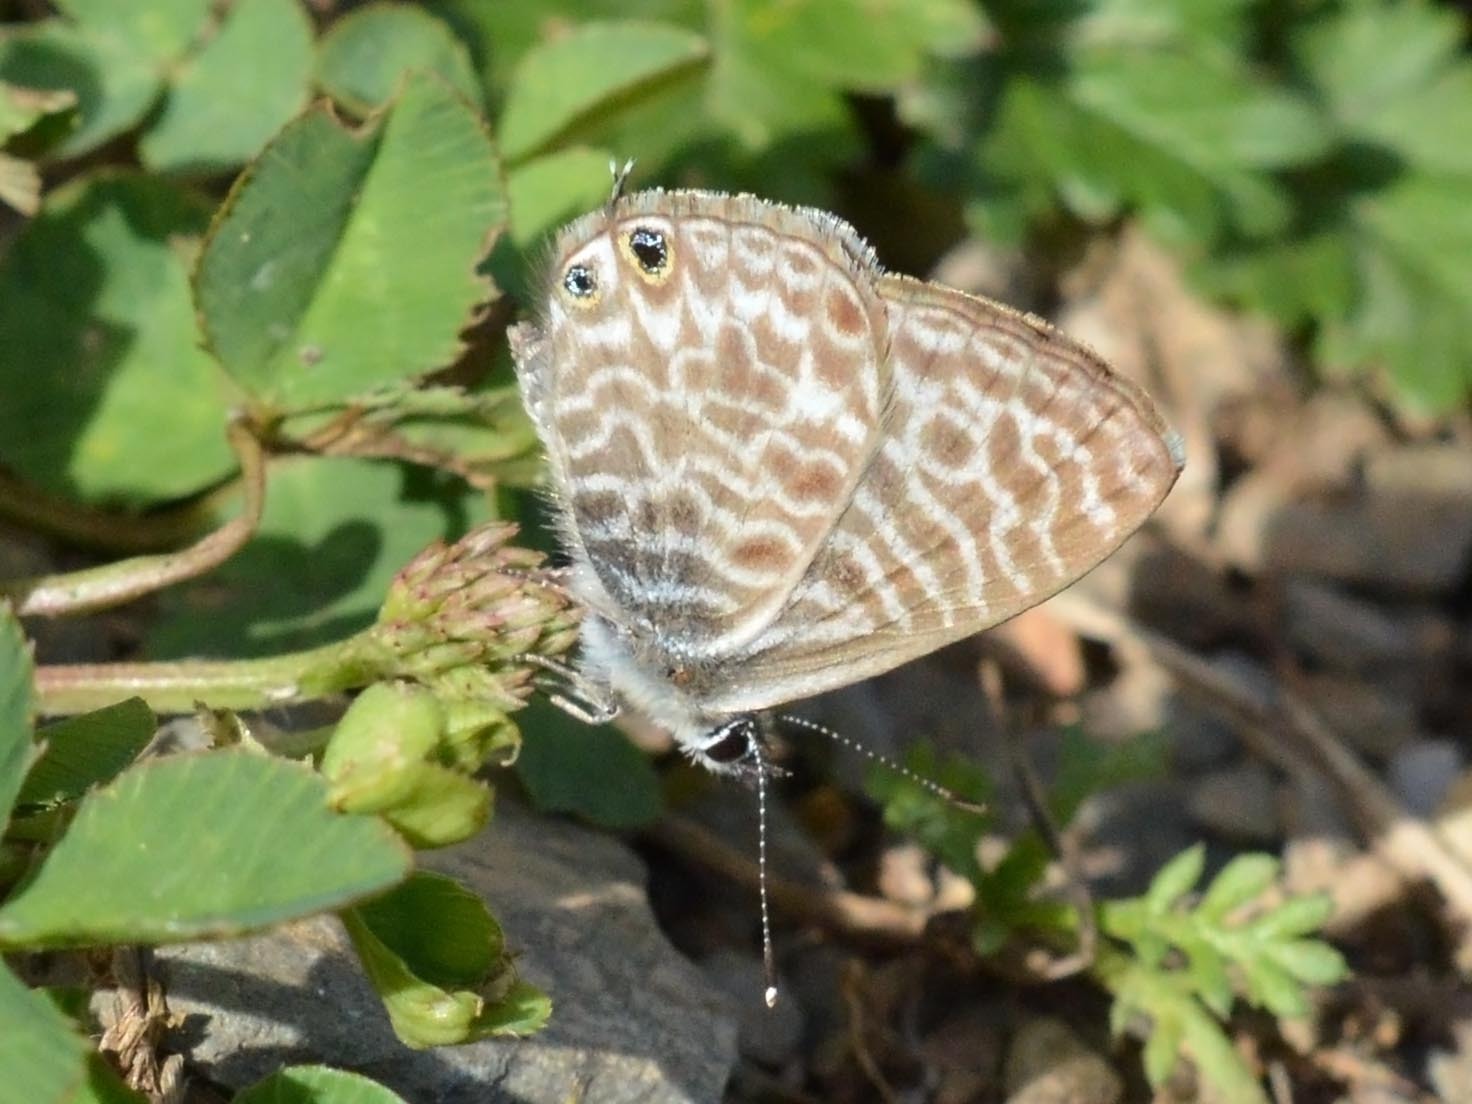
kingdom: Animalia
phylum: Arthropoda
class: Insecta
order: Lepidoptera
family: Lycaenidae
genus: Leptotes
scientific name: Leptotes pirithous
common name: Lang's short-tailed blue
